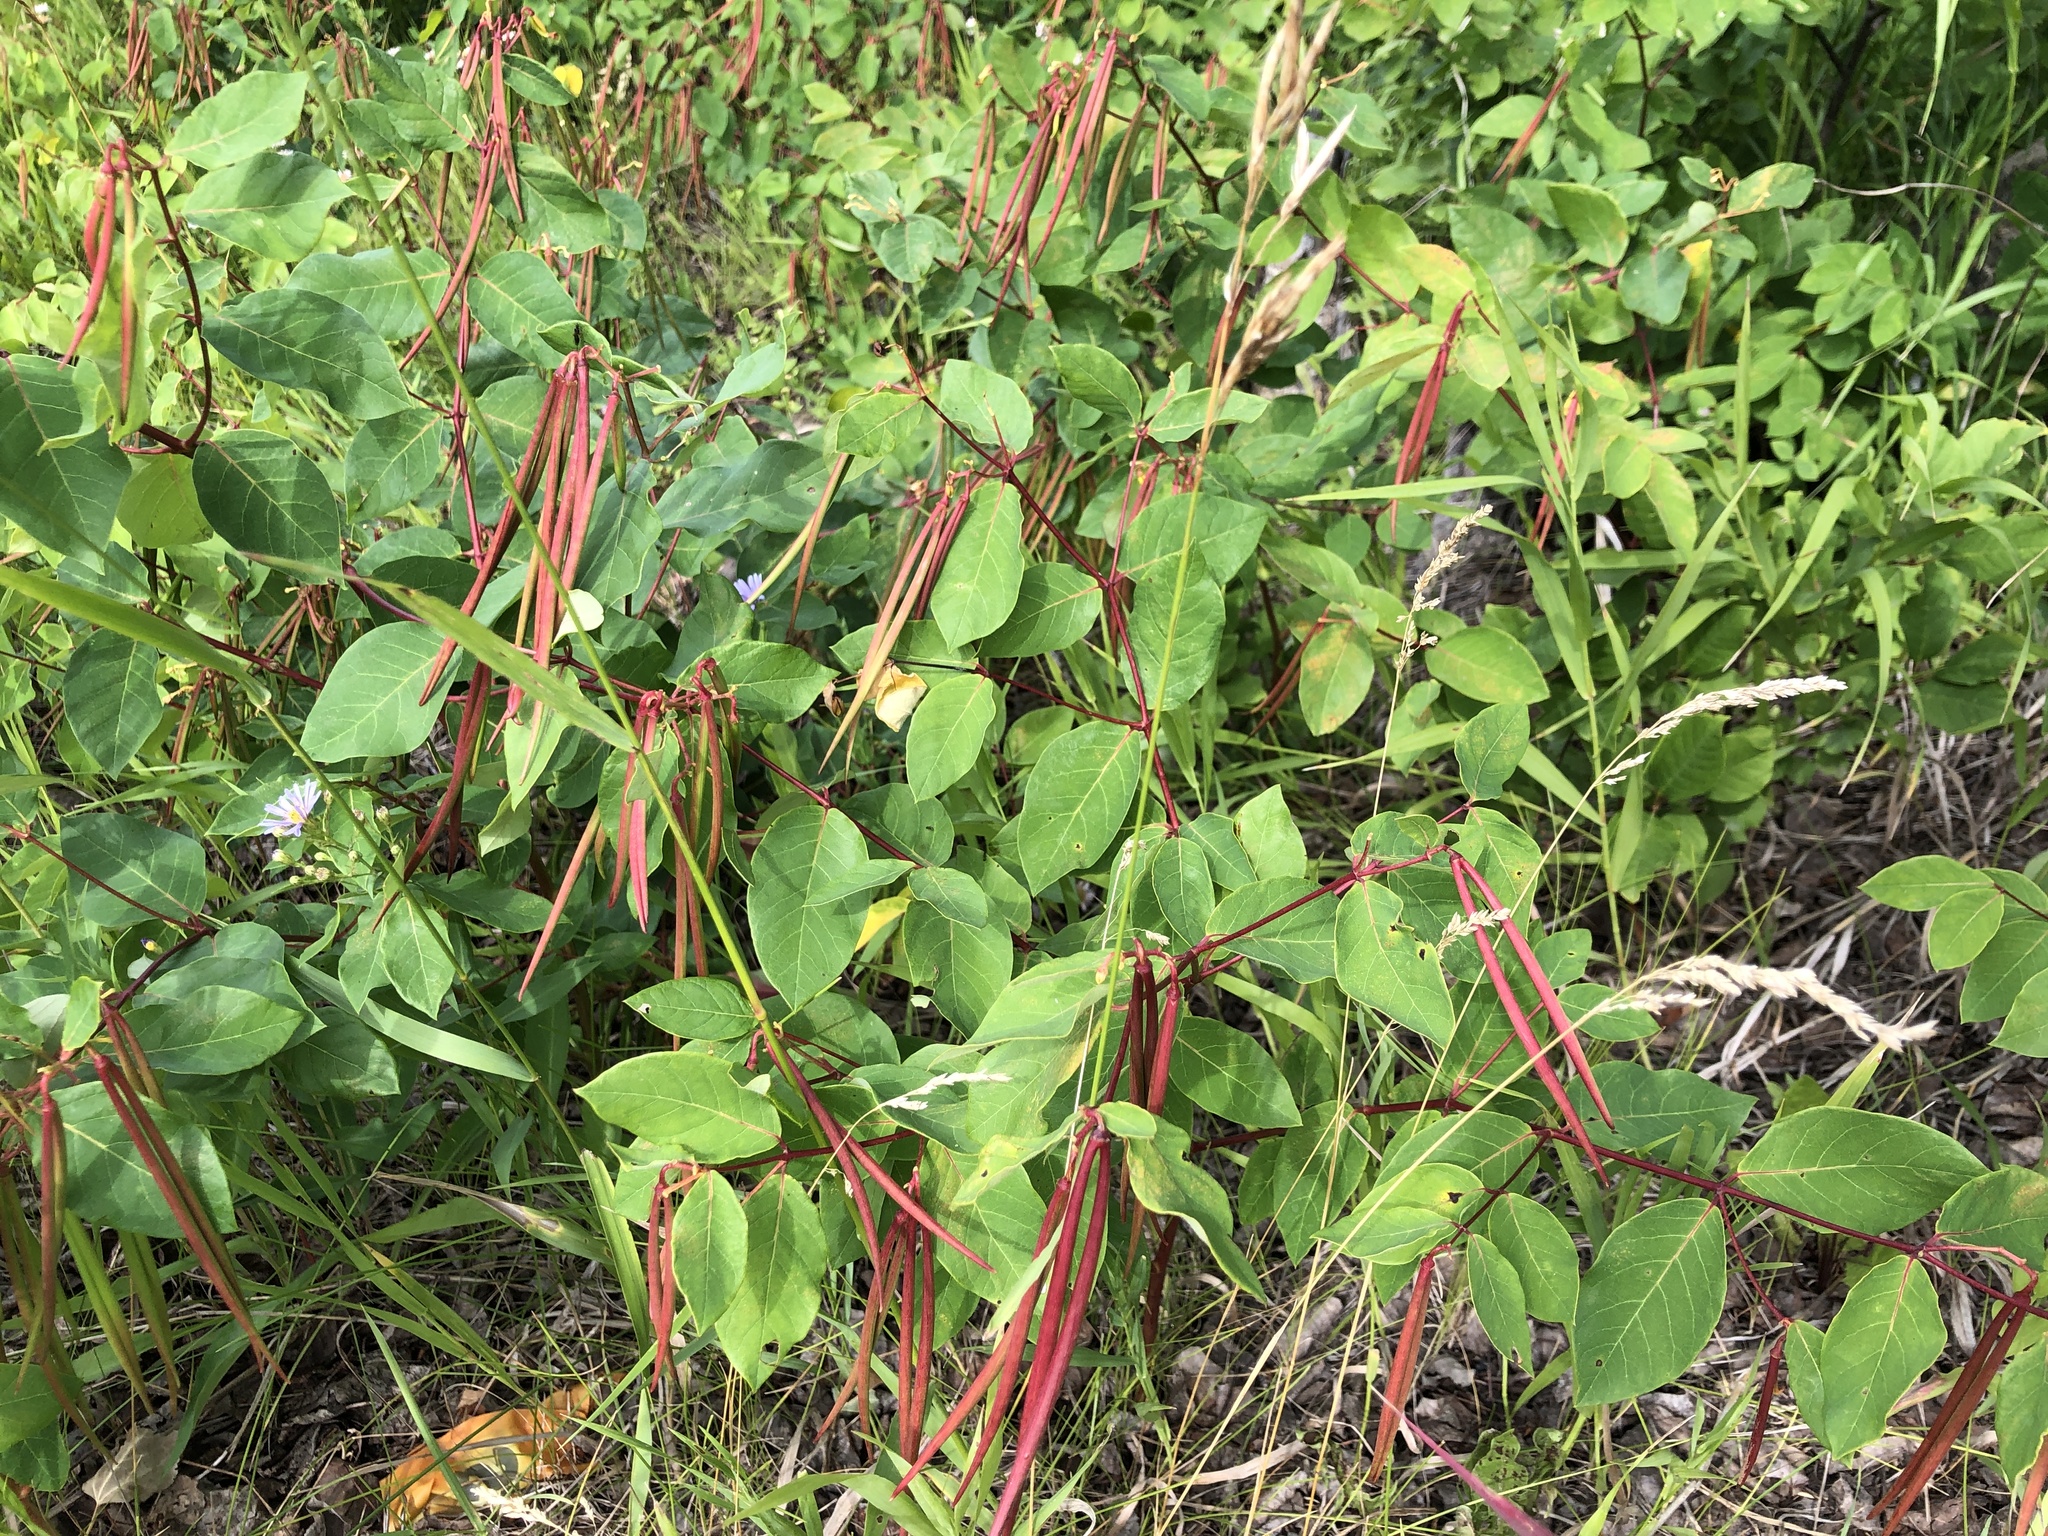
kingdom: Plantae
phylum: Tracheophyta
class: Magnoliopsida
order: Gentianales
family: Apocynaceae
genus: Apocynum
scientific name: Apocynum androsaemifolium
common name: Spreading dogbane
